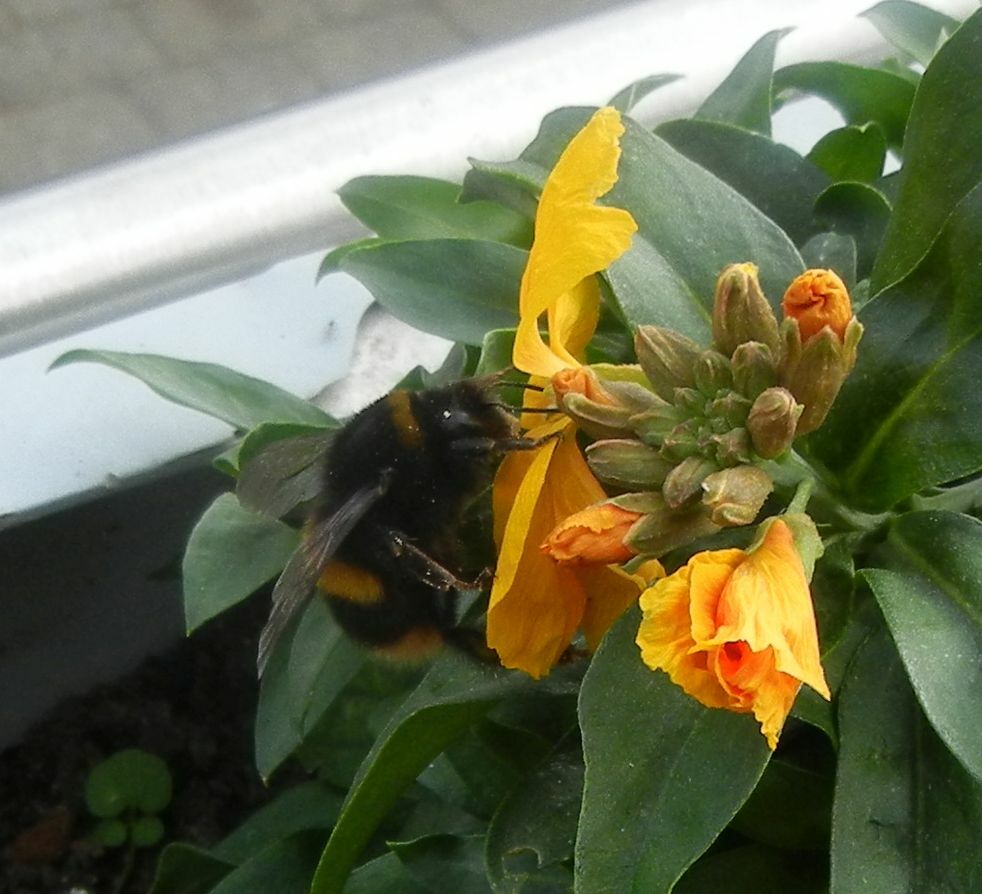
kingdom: Animalia
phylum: Arthropoda
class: Insecta
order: Hymenoptera
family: Apidae
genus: Bombus
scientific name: Bombus terrestris
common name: Buff-tailed bumblebee
